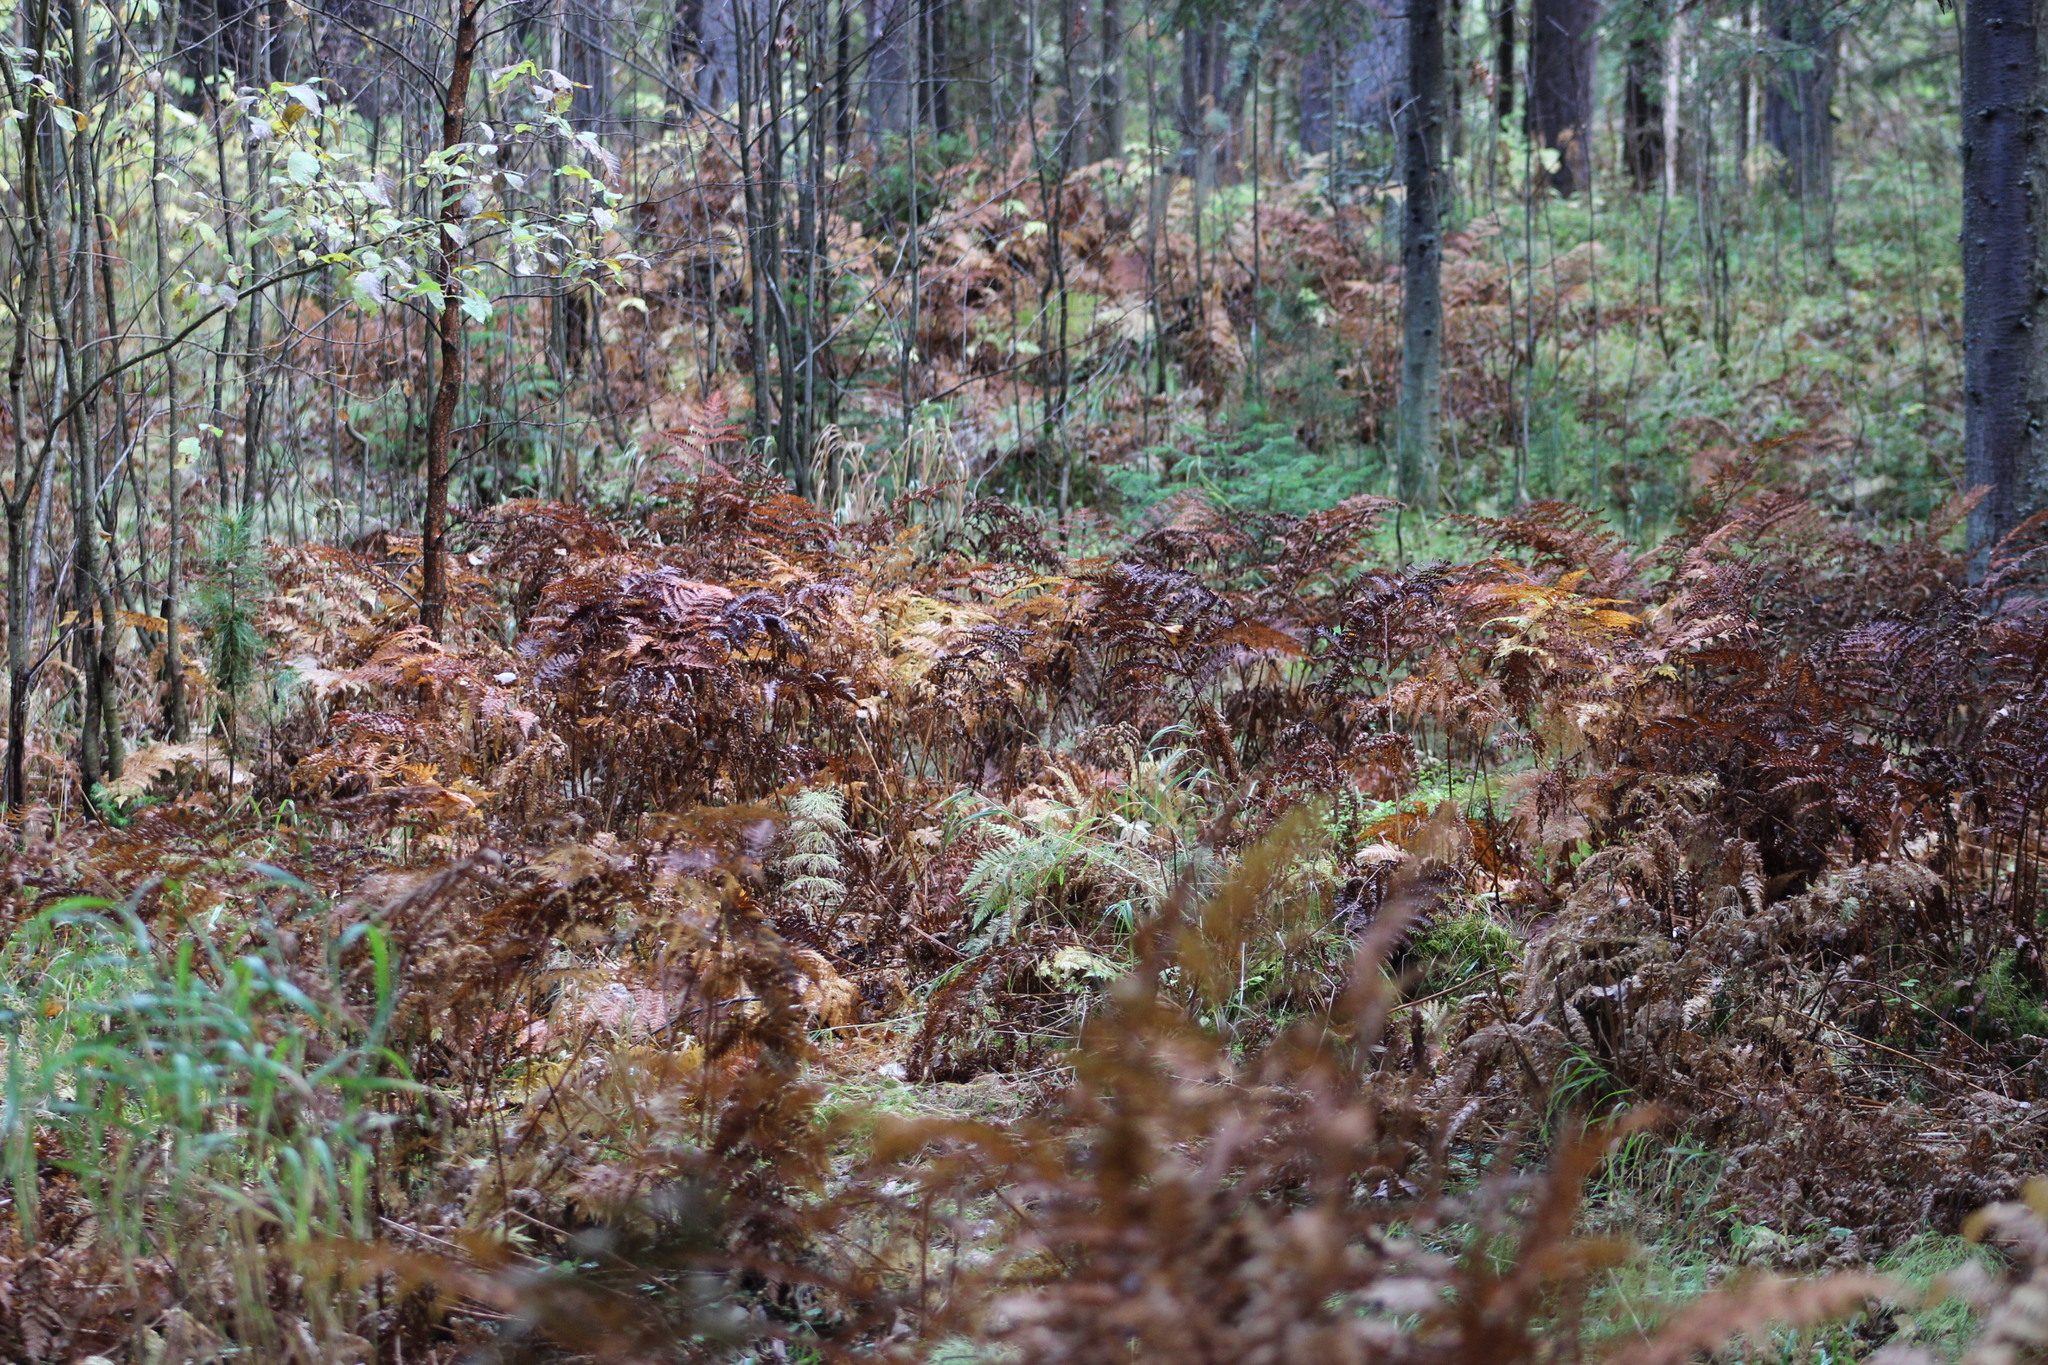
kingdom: Plantae
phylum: Tracheophyta
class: Polypodiopsida
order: Polypodiales
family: Dennstaedtiaceae
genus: Pteridium
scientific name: Pteridium aquilinum
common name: Bracken
